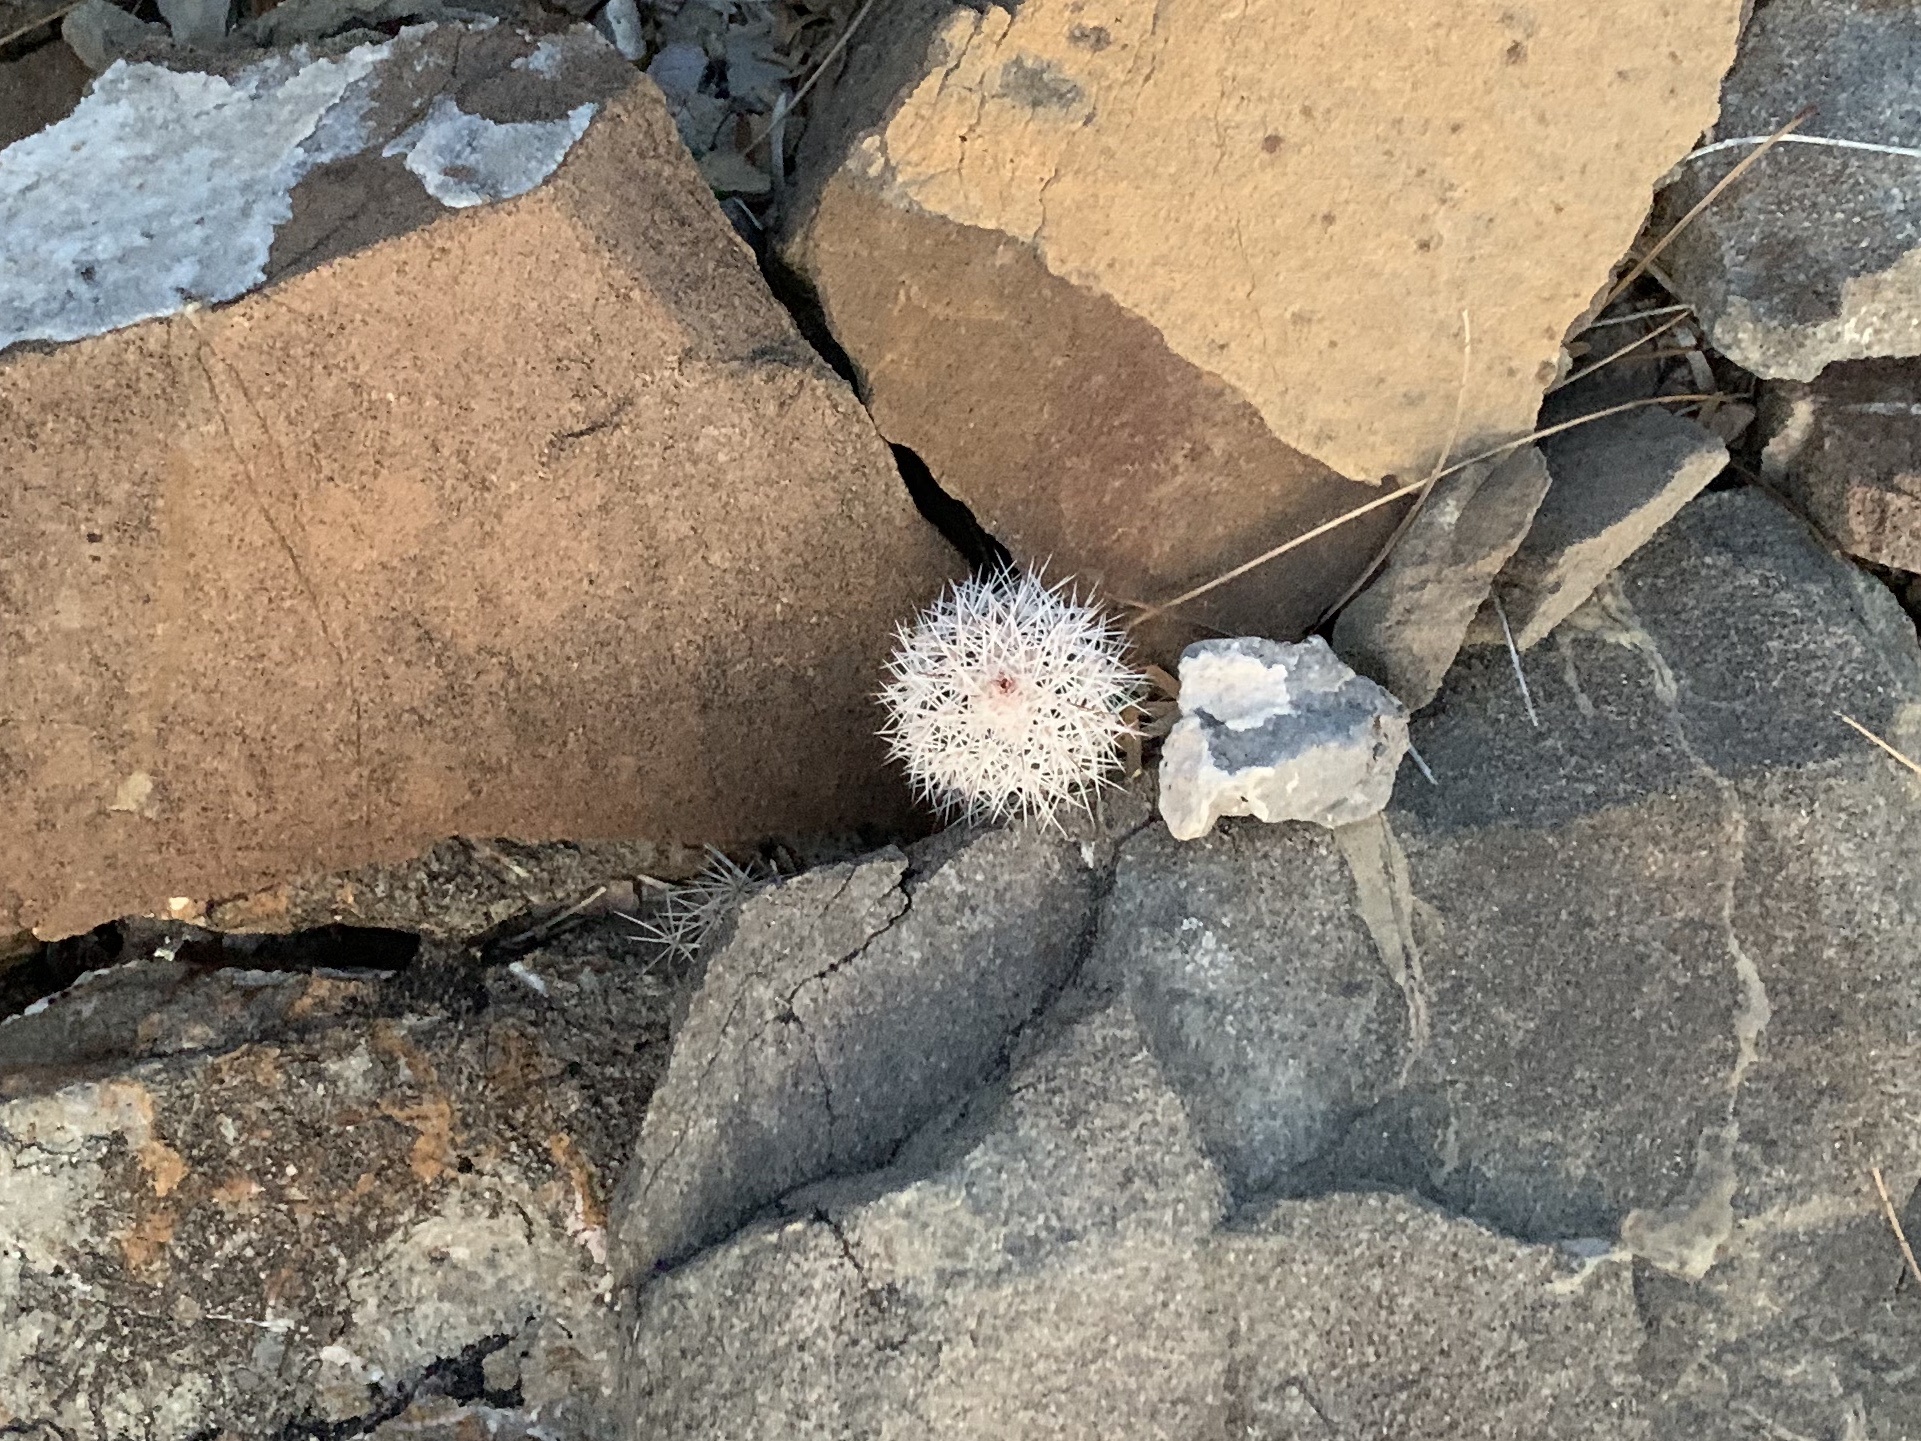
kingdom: Plantae
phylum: Tracheophyta
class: Magnoliopsida
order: Caryophyllales
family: Cactaceae
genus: Echinocereus
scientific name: Echinocereus dasyacanthus
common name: Spiny hedgehog cactus
